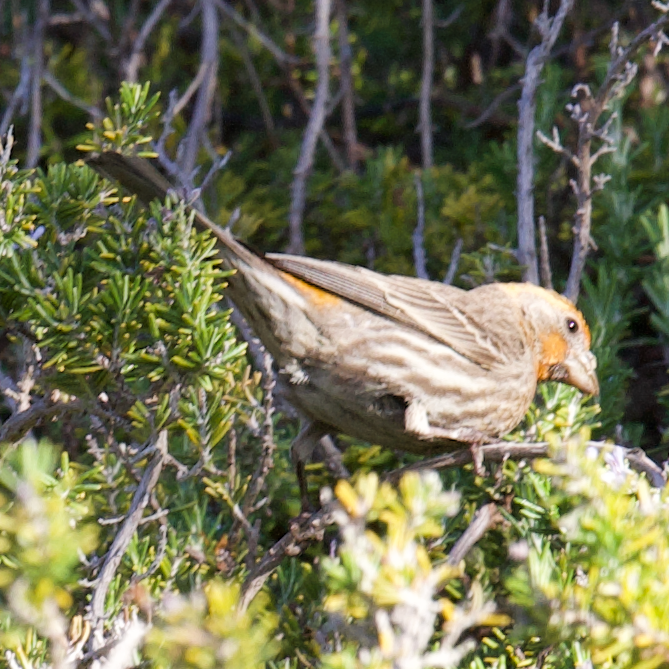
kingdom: Animalia
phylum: Chordata
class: Aves
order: Passeriformes
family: Fringillidae
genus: Haemorhous
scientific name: Haemorhous mexicanus
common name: House finch
